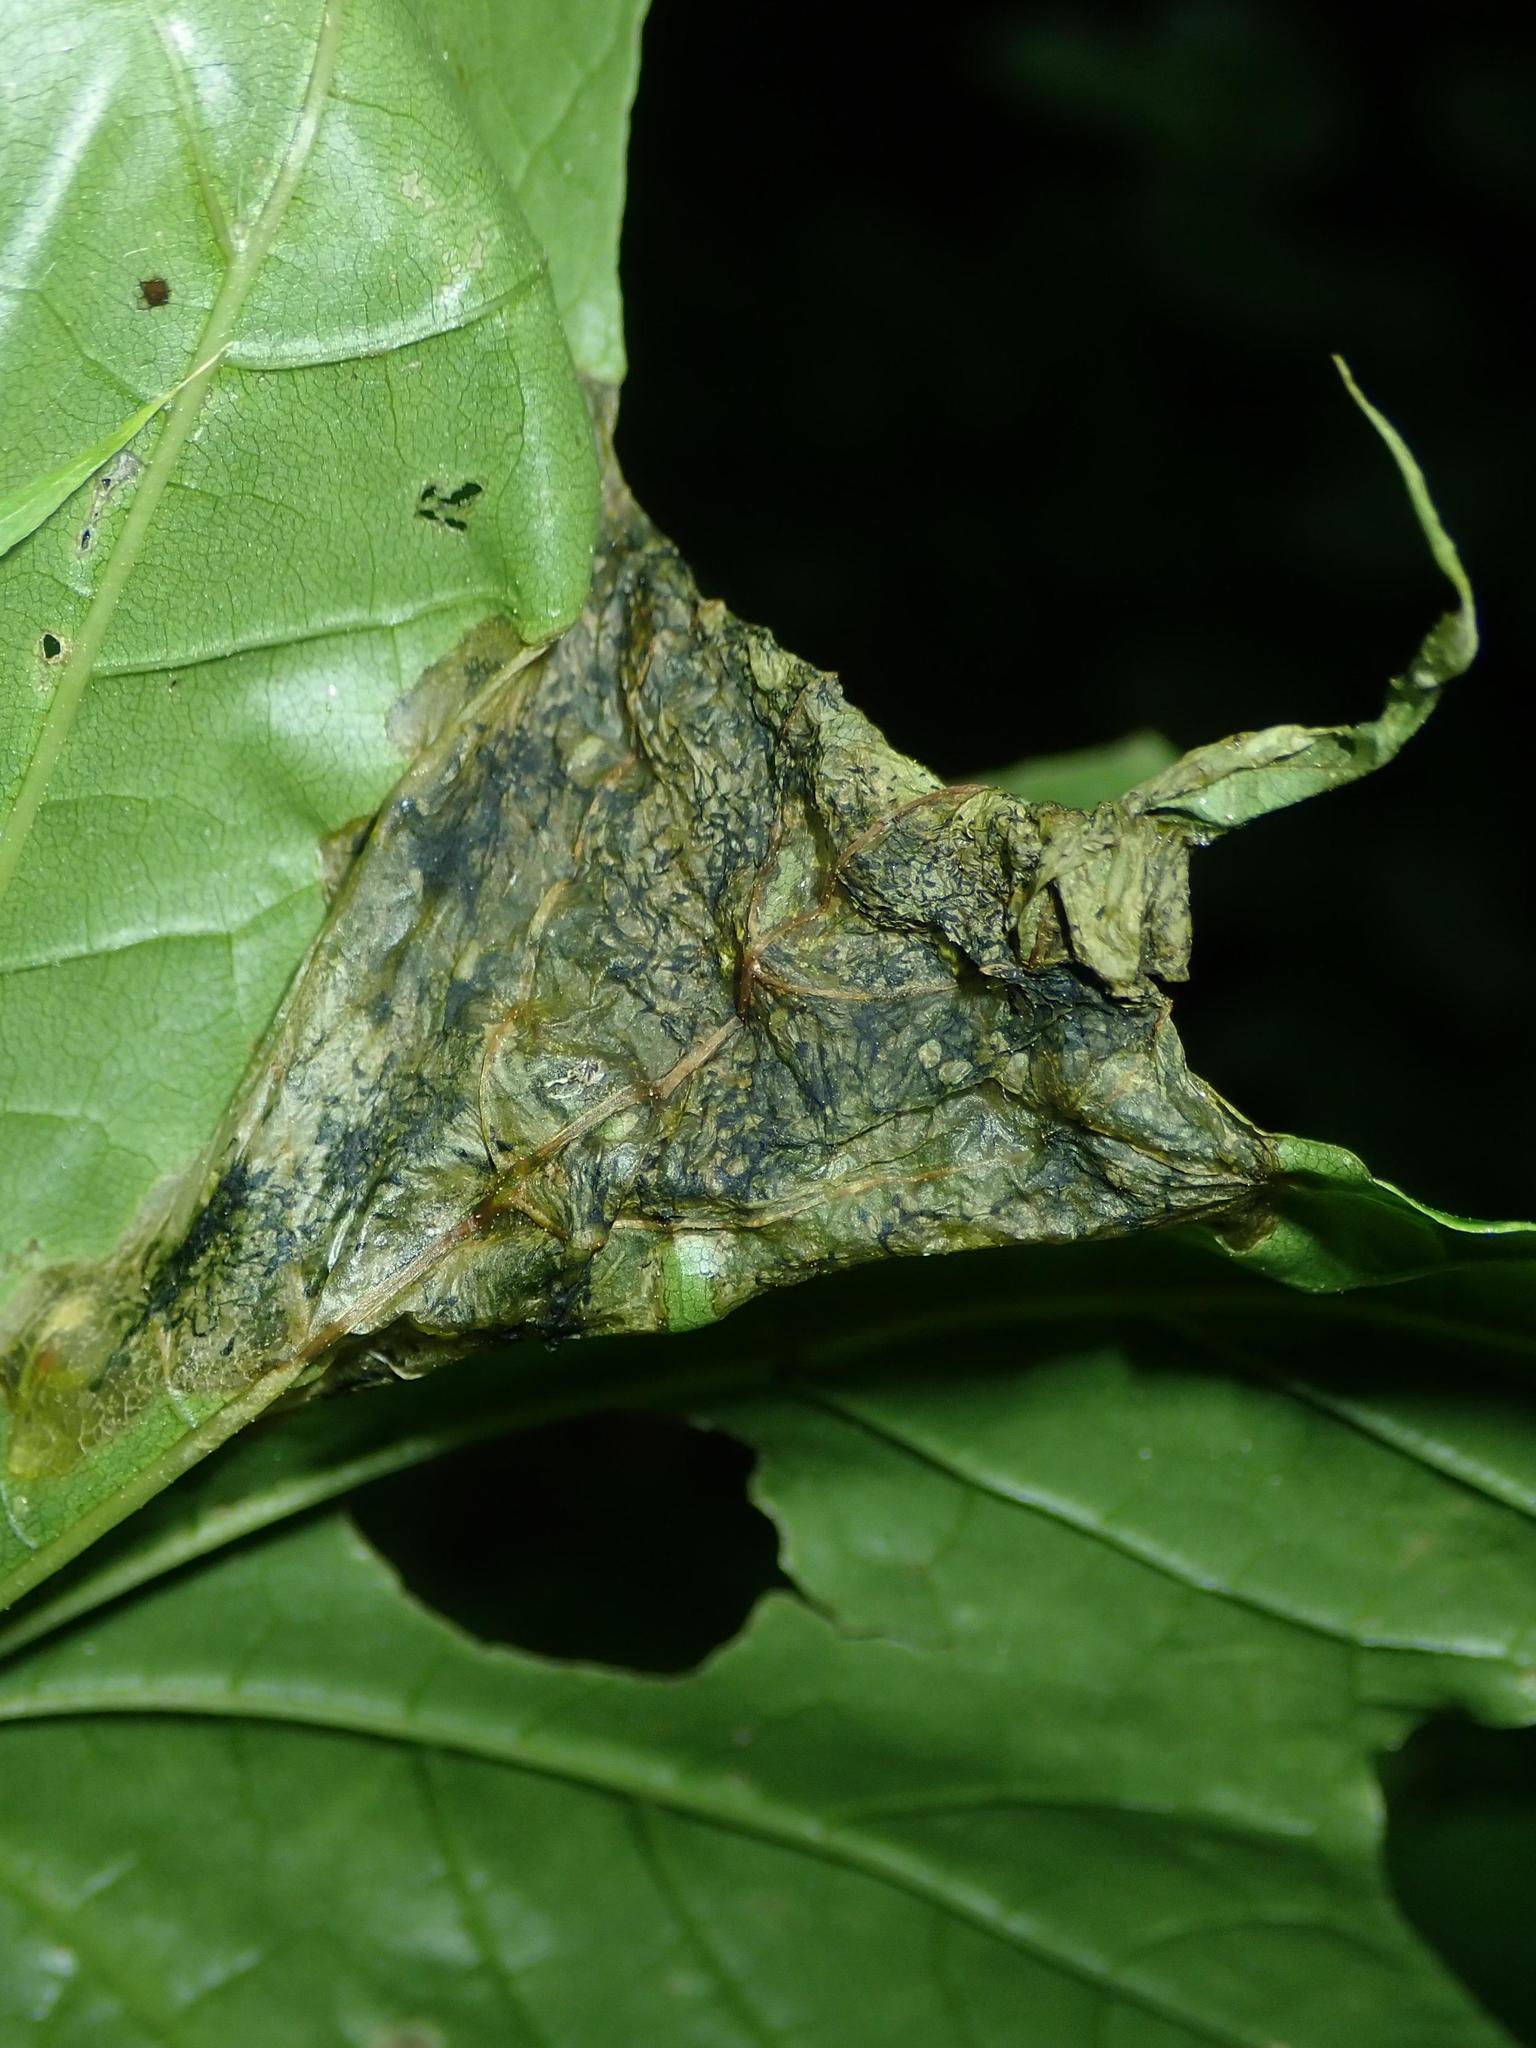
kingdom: Animalia
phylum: Arthropoda
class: Insecta
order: Hymenoptera
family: Tenthredinidae
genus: Hinatara
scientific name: Hinatara recta
